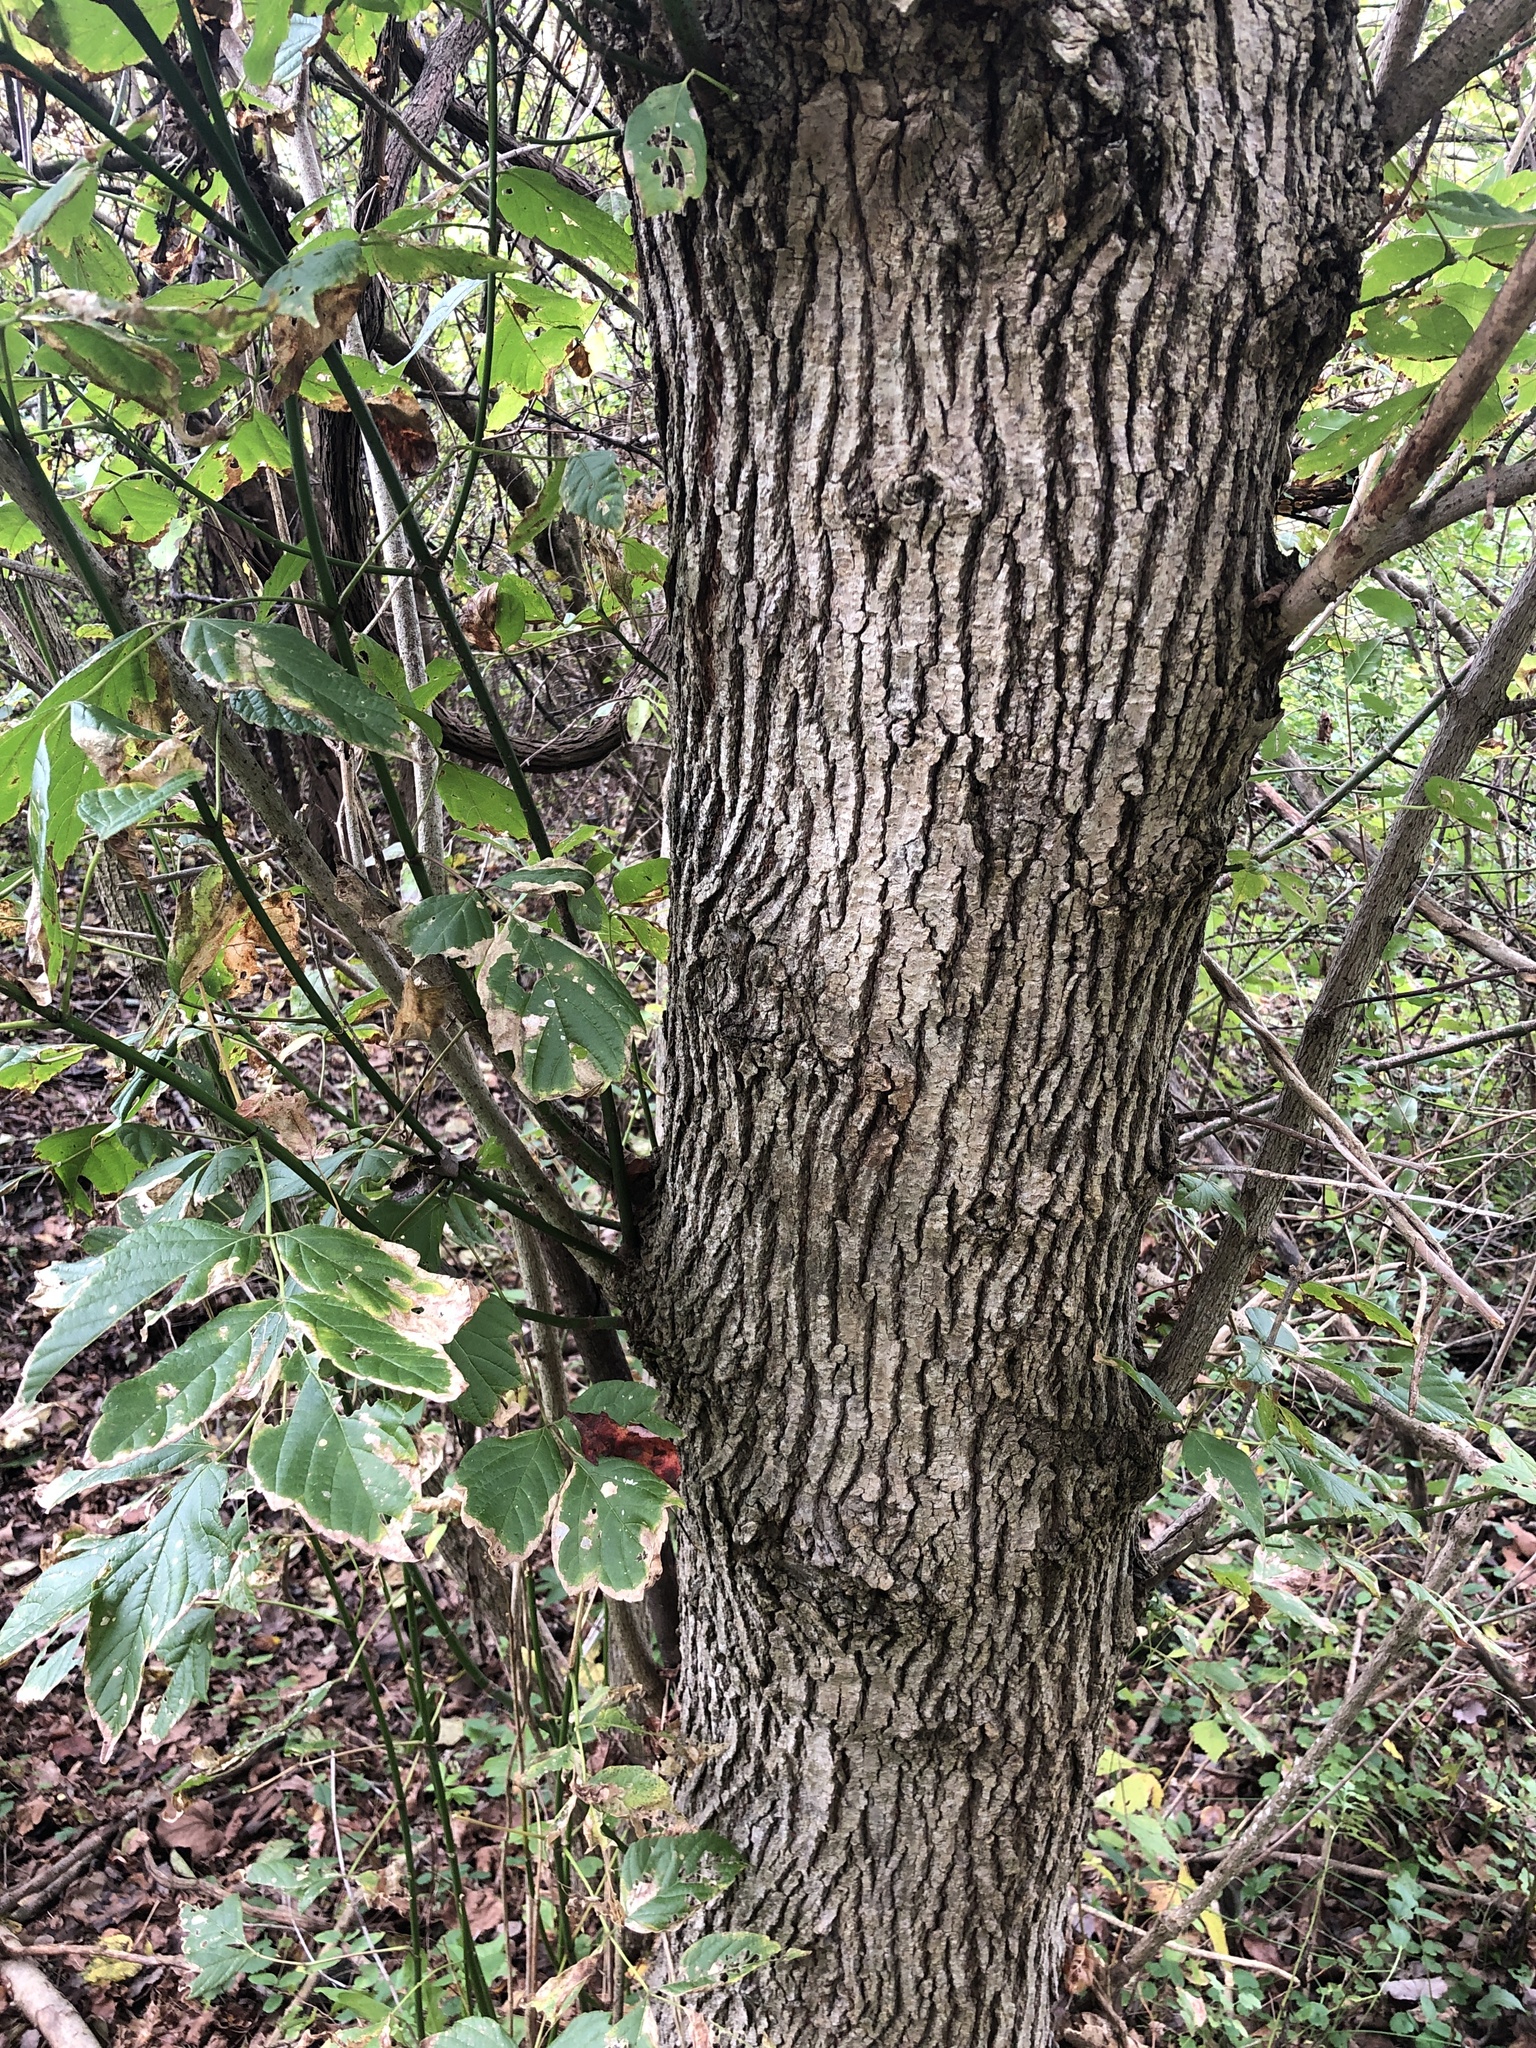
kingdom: Plantae
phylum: Tracheophyta
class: Magnoliopsida
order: Sapindales
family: Sapindaceae
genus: Acer
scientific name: Acer negundo
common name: Ashleaf maple
